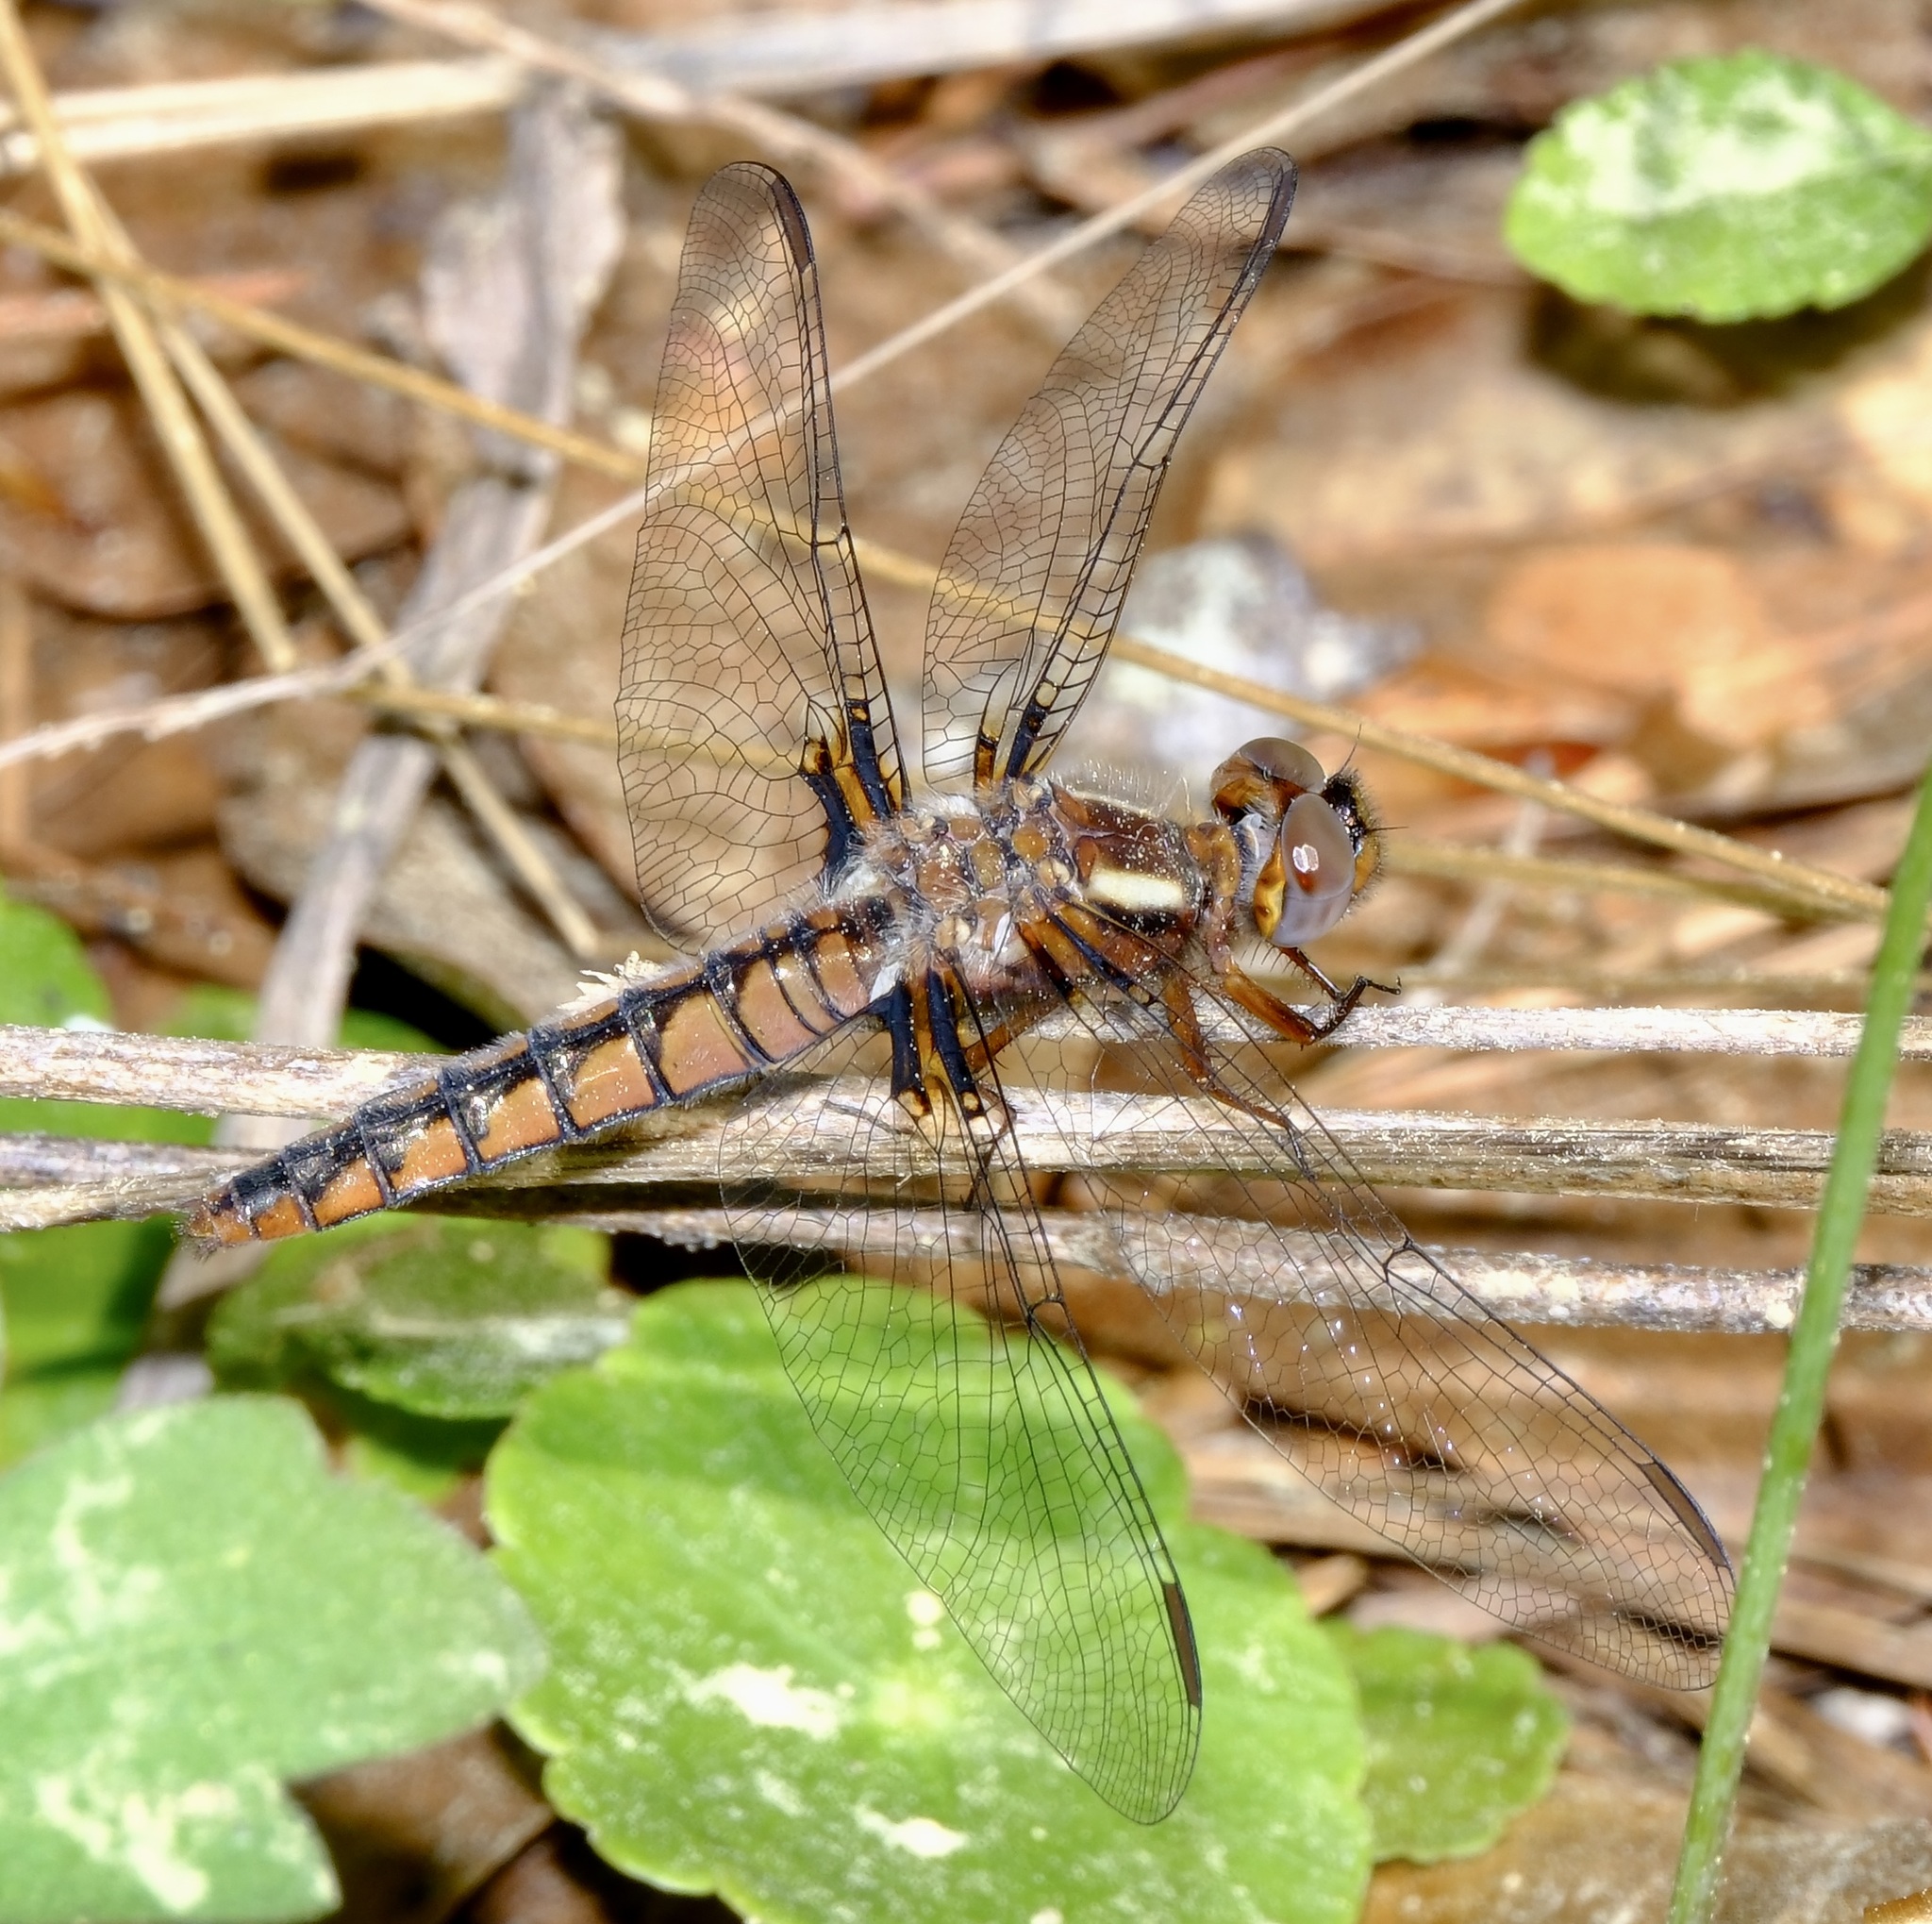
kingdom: Animalia
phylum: Arthropoda
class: Insecta
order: Odonata
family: Libellulidae
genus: Ladona
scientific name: Ladona deplanata
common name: Blue corporal
